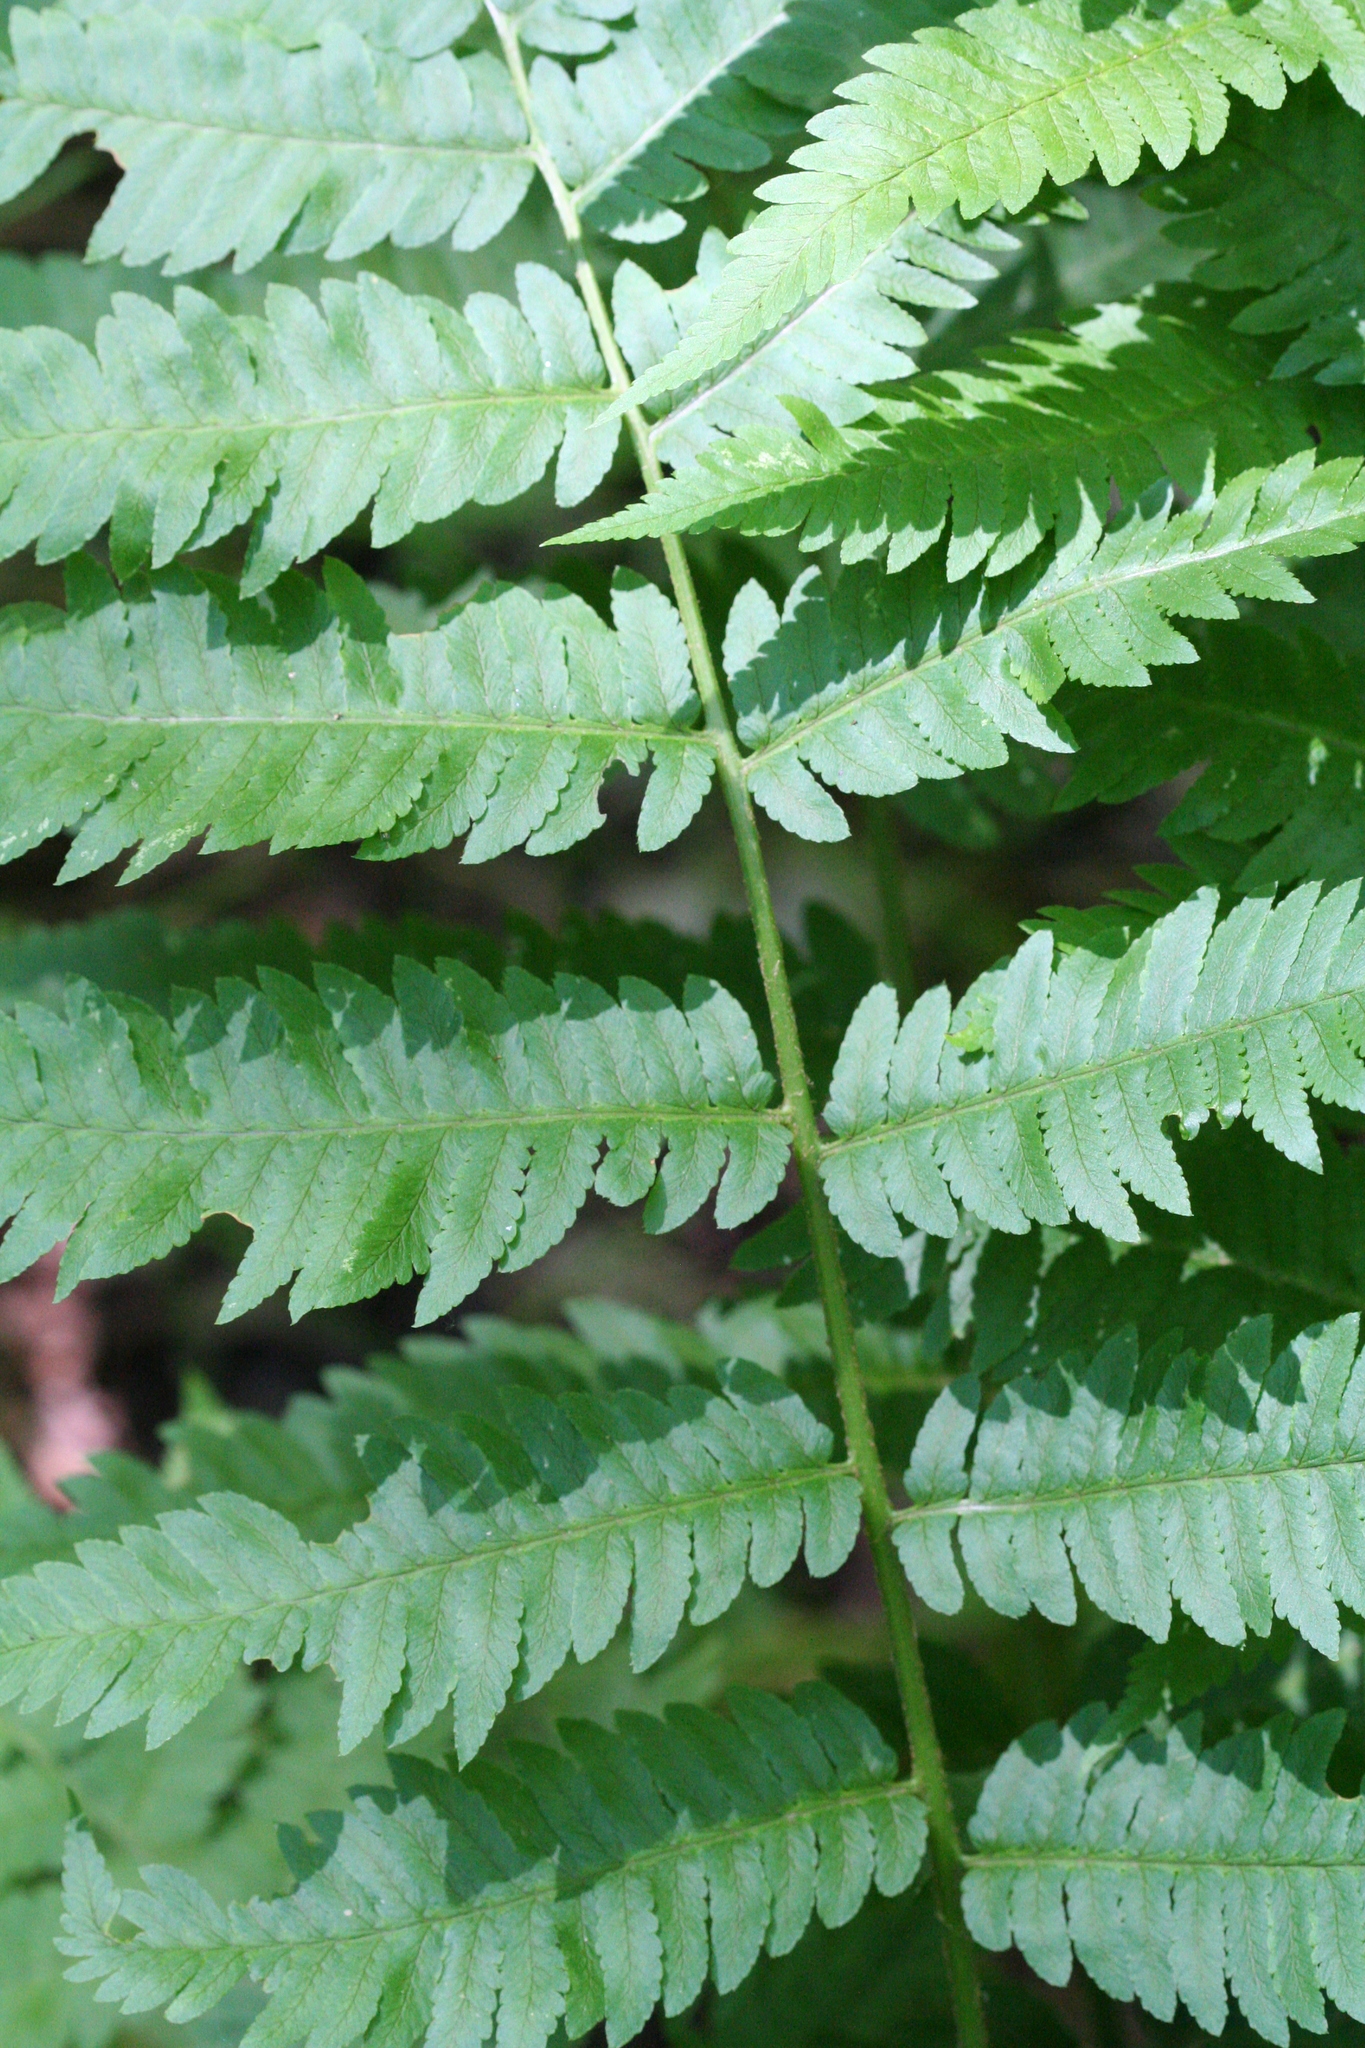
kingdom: Plantae
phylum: Tracheophyta
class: Polypodiopsida
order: Polypodiales
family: Dryopteridaceae
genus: Dryopteris
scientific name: Dryopteris goldieana
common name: Goldie's fern
